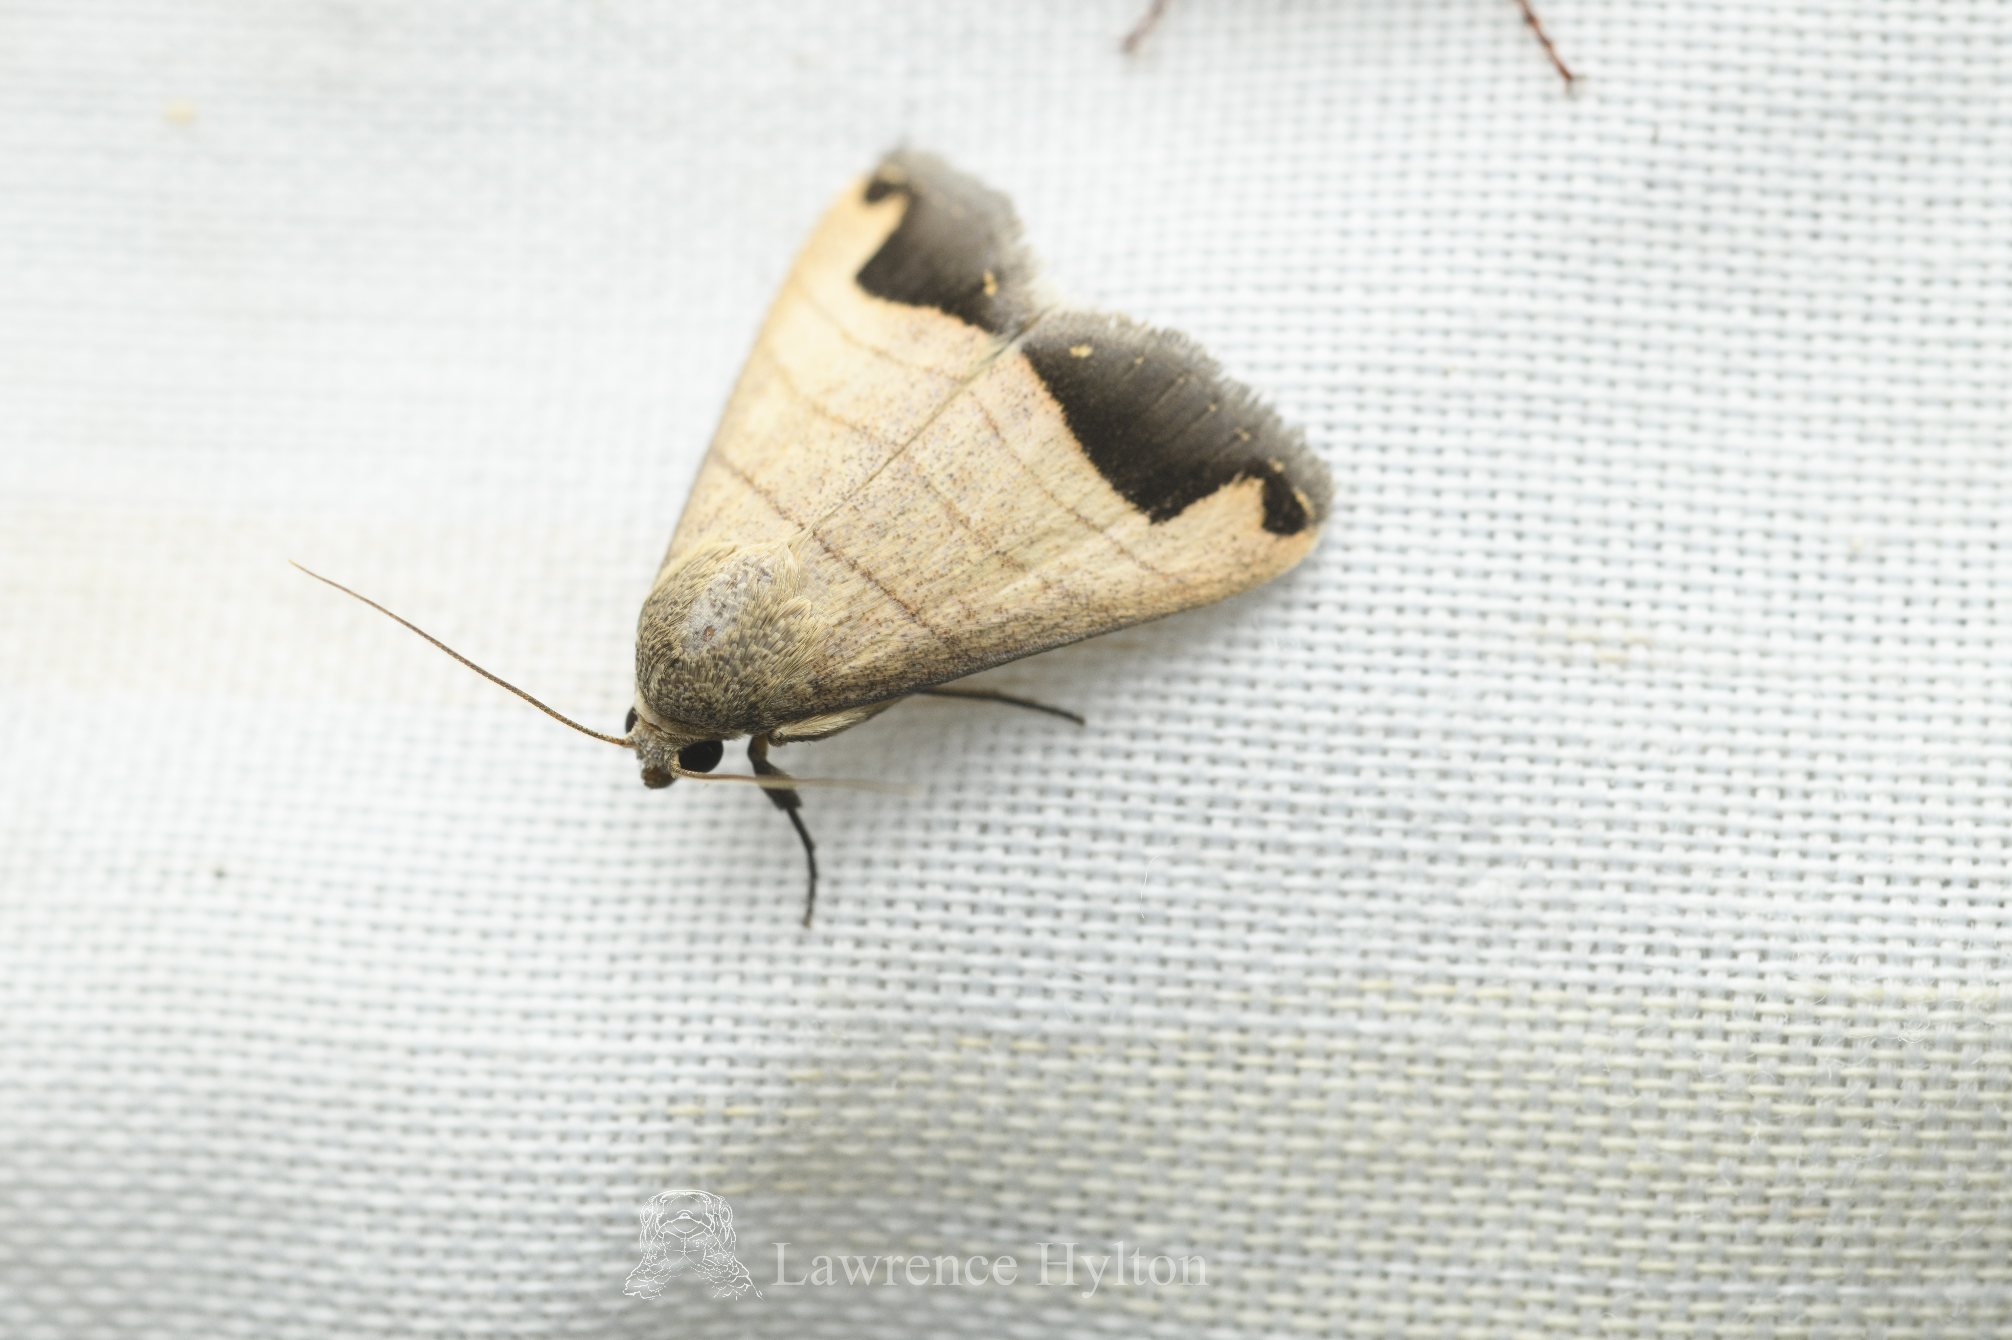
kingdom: Animalia
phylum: Arthropoda
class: Insecta
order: Lepidoptera
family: Erebidae
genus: Bocula
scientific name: Bocula marginata
